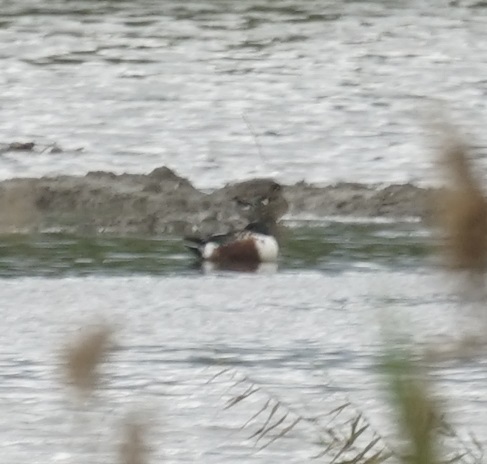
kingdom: Animalia
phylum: Chordata
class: Aves
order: Anseriformes
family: Anatidae
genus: Spatula
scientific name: Spatula clypeata
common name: Northern shoveler
